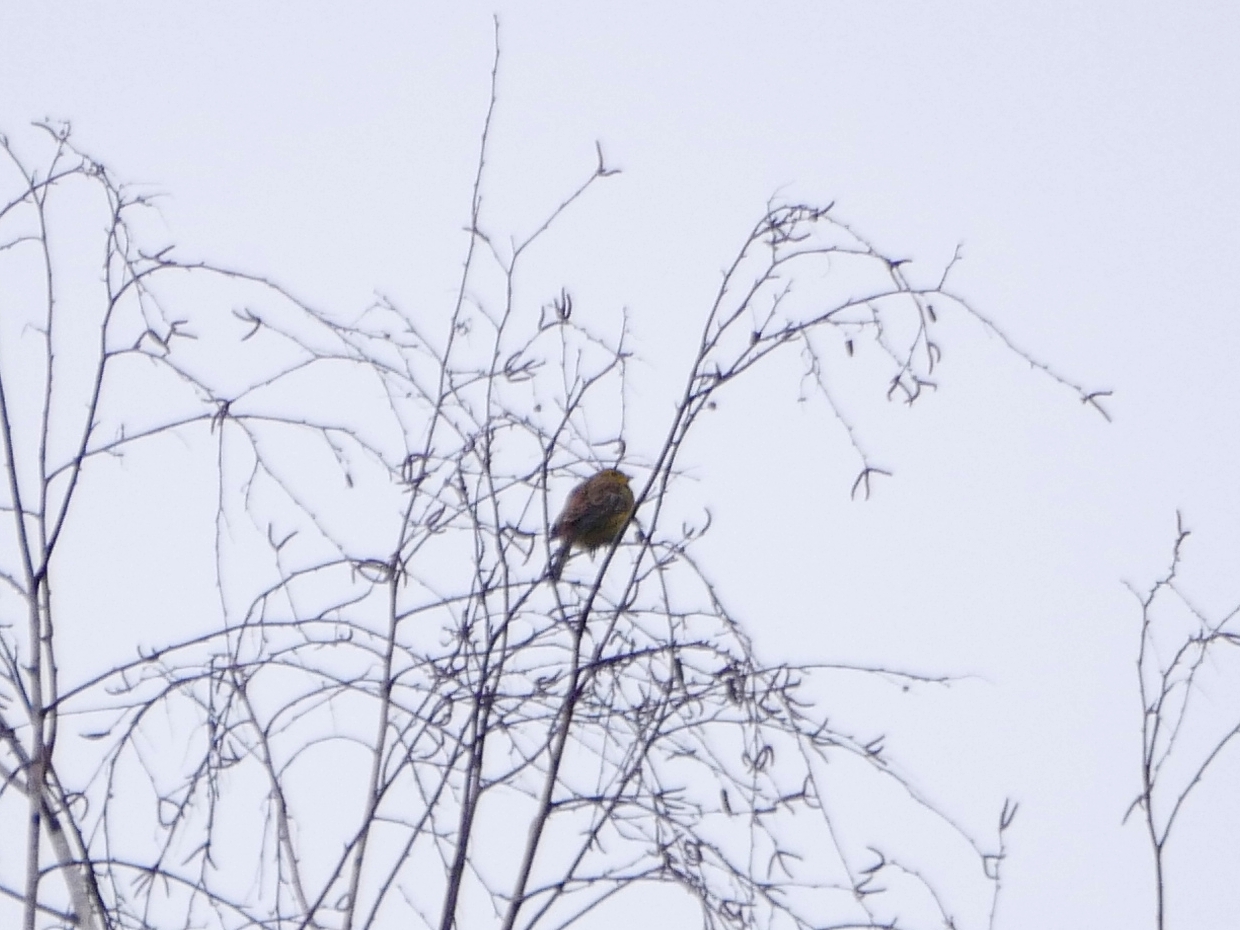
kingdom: Animalia
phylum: Chordata
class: Aves
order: Passeriformes
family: Emberizidae
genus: Emberiza
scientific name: Emberiza citrinella
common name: Yellowhammer
